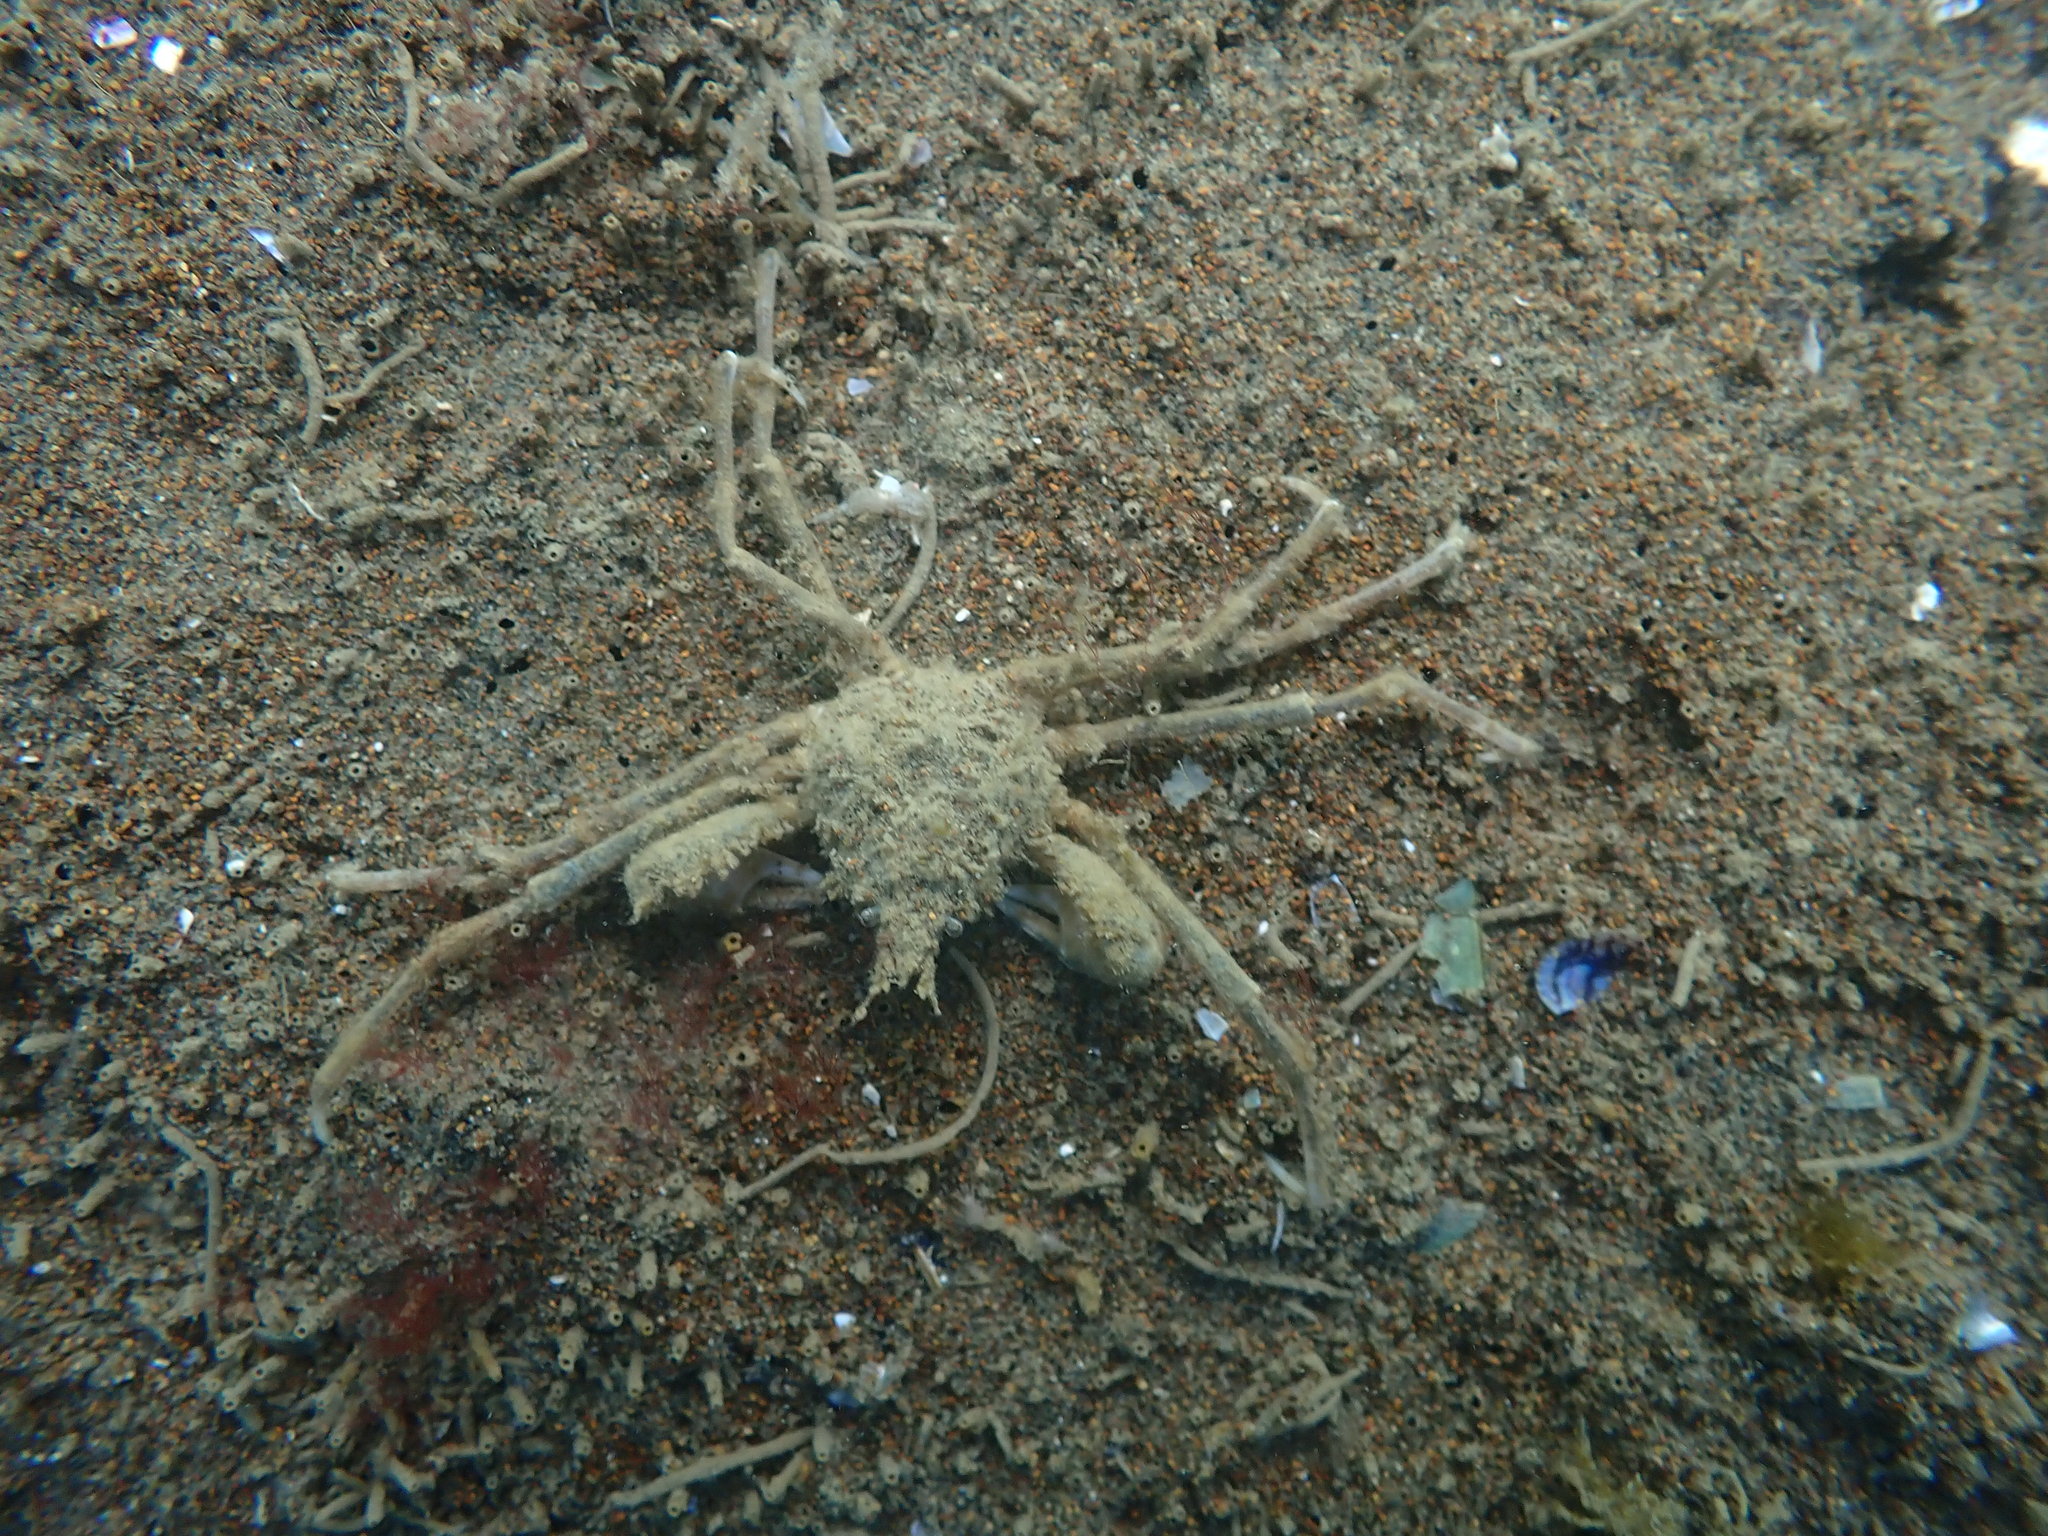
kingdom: Animalia
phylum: Arthropoda
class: Malacostraca
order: Decapoda
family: Inachoididae
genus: Pyromaia
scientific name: Pyromaia tuberculata
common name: Tuberculate pear crab
